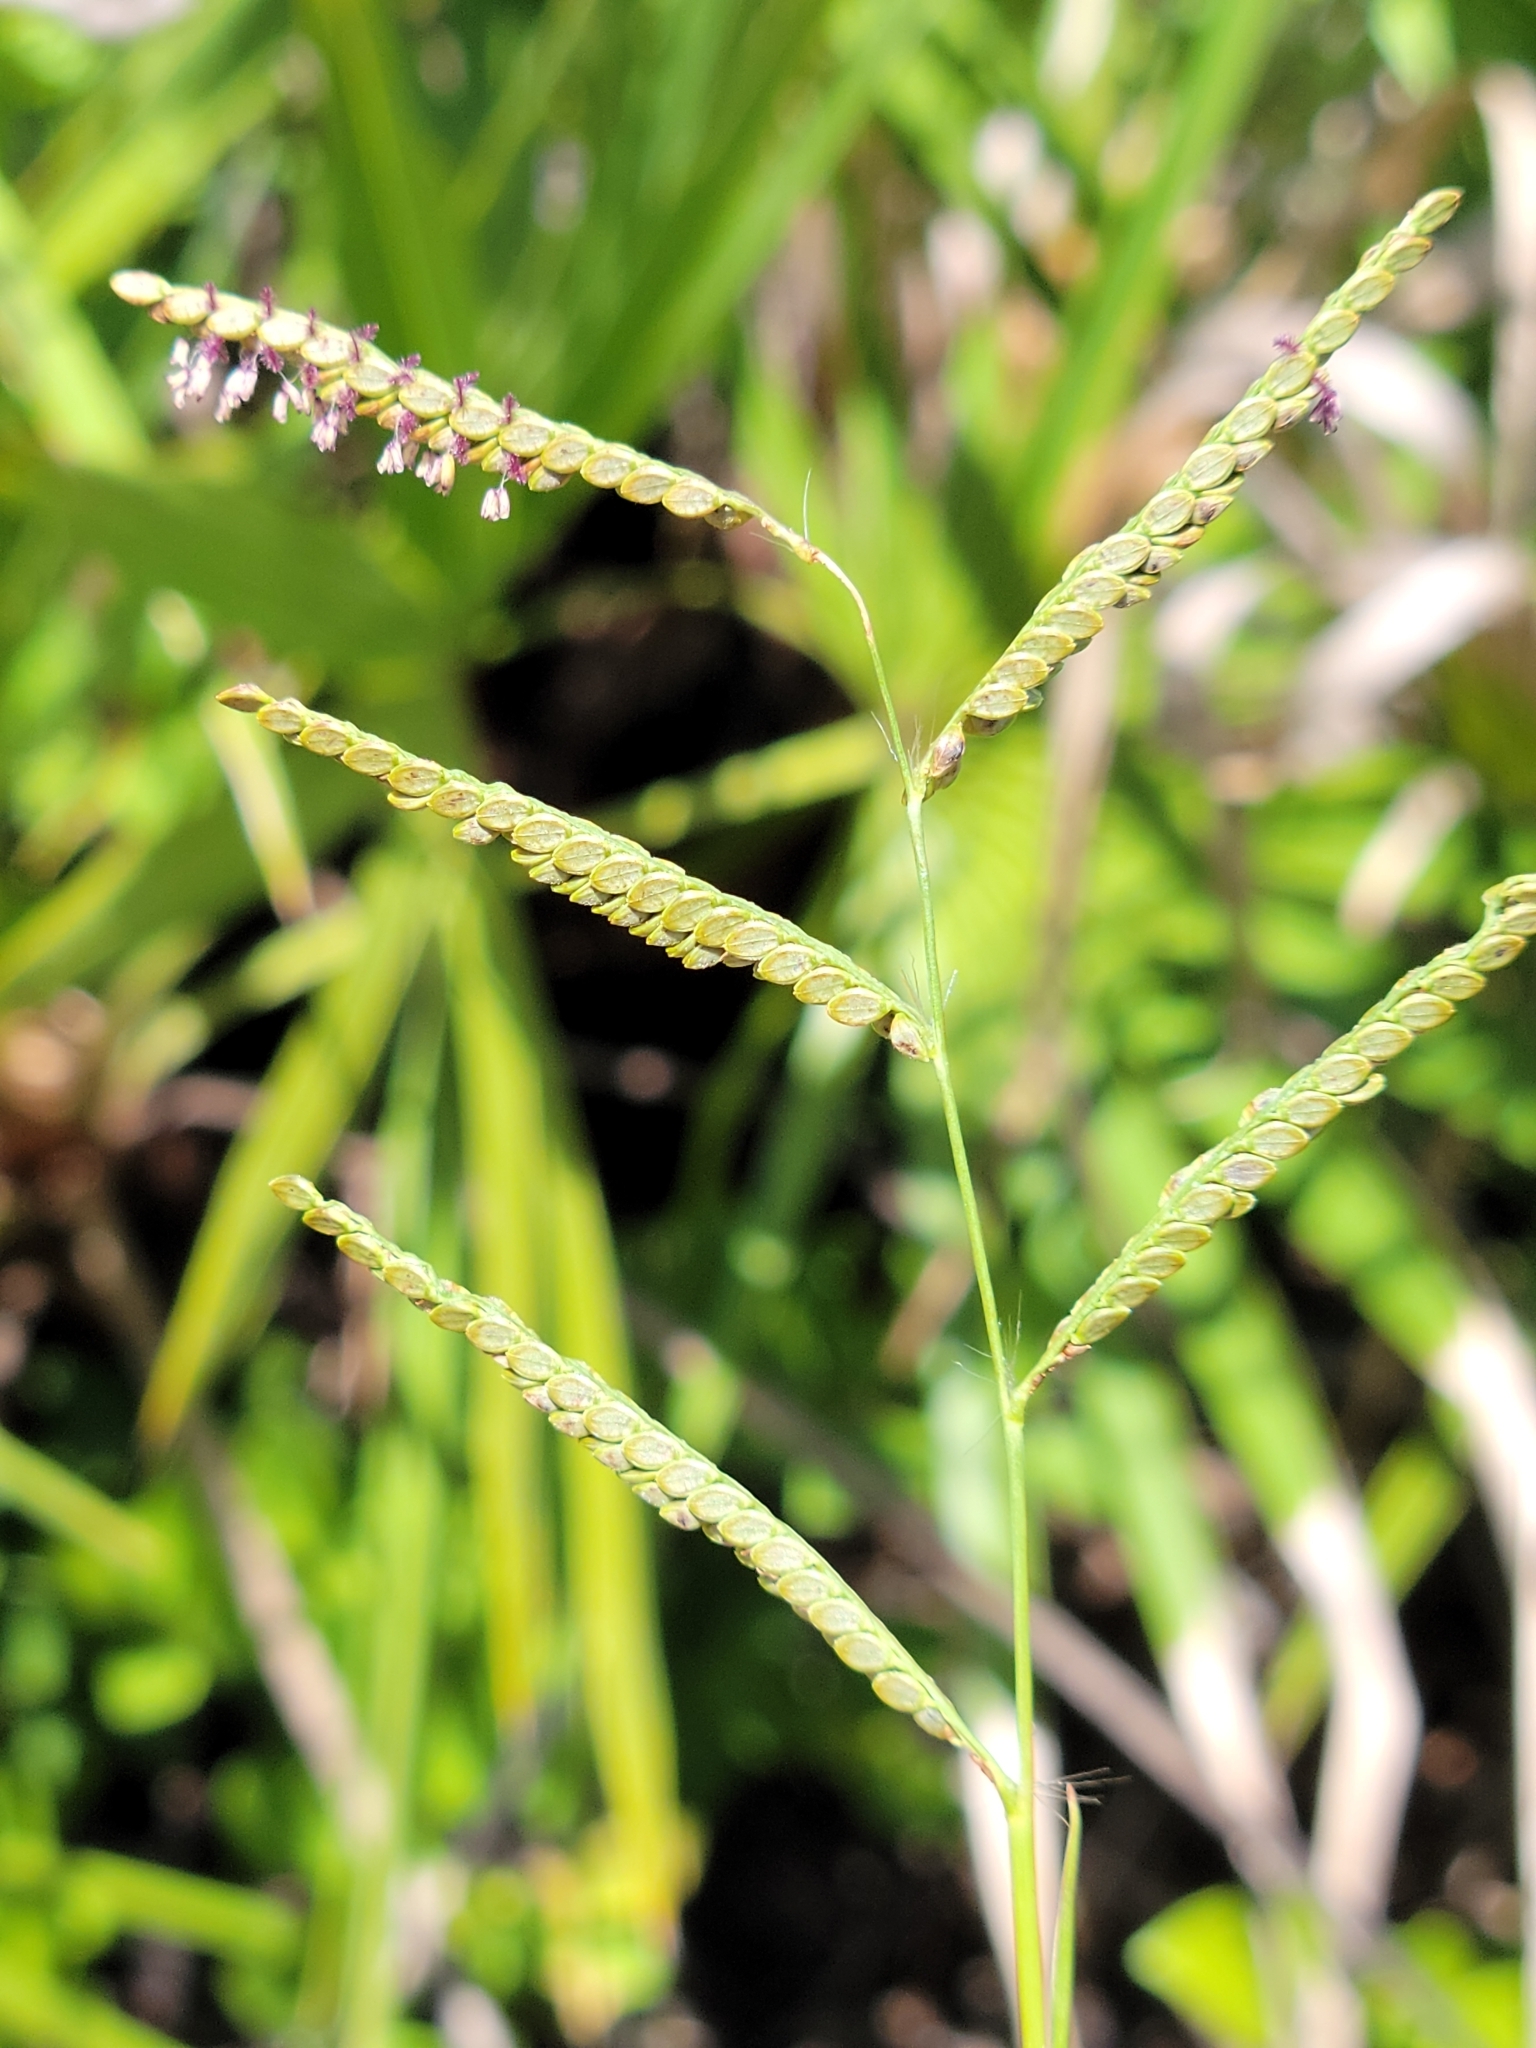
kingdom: Plantae
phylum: Tracheophyta
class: Liliopsida
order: Poales
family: Poaceae
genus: Paspalum
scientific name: Paspalum plicatulum
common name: Top paspalum
